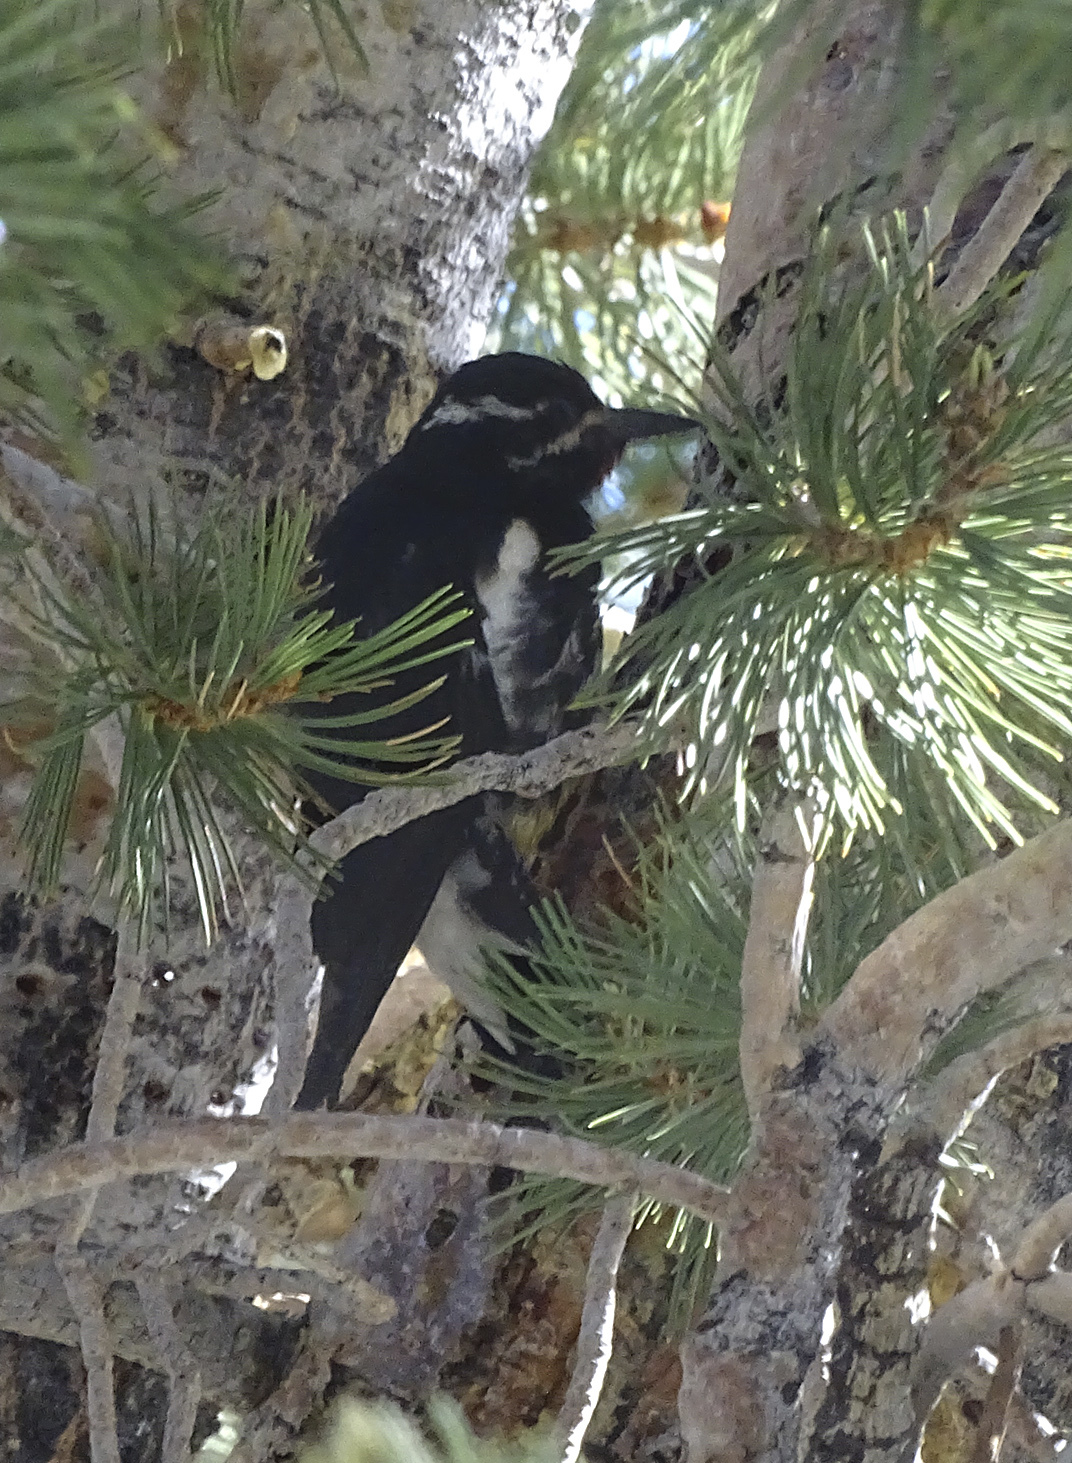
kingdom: Animalia
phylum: Chordata
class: Aves
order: Piciformes
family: Picidae
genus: Sphyrapicus
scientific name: Sphyrapicus thyroideus
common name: Williamson's sapsucker
